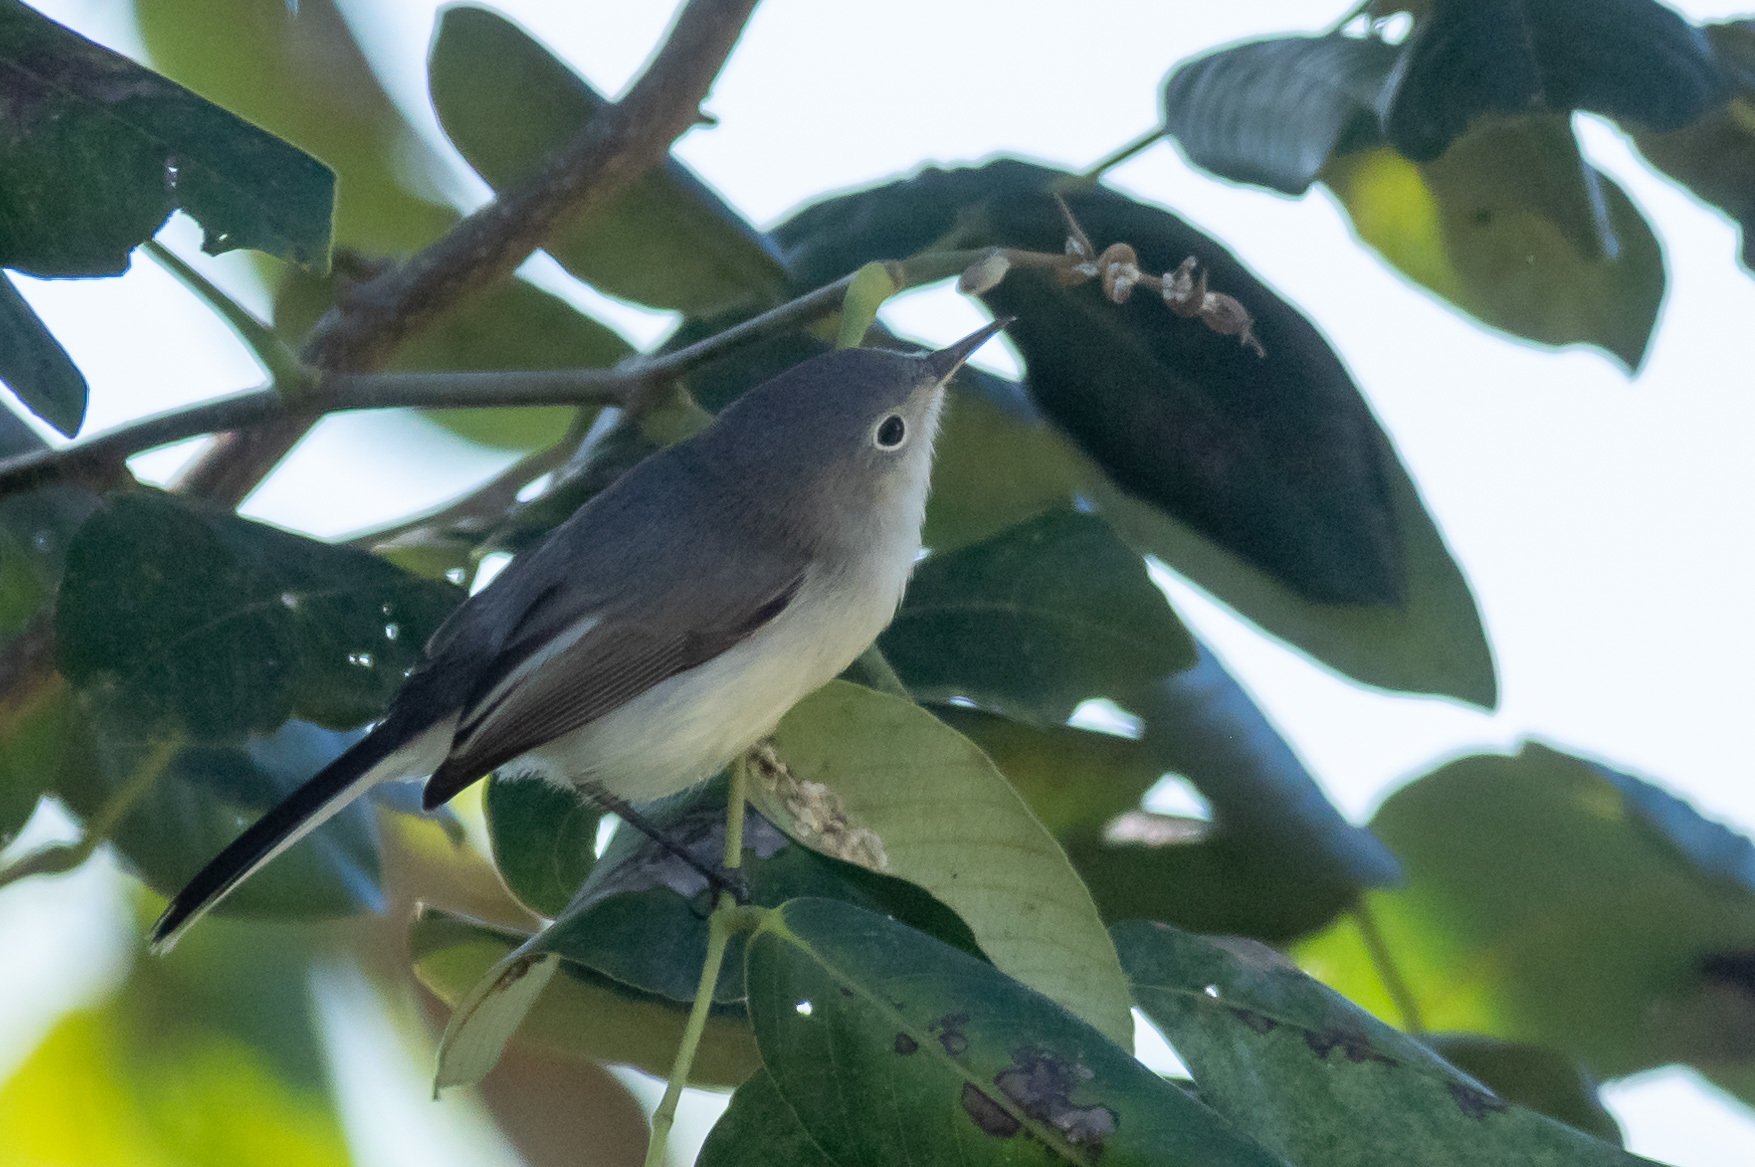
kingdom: Animalia
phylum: Chordata
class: Aves
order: Passeriformes
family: Polioptilidae
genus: Polioptila
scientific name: Polioptila caerulea
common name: Blue-gray gnatcatcher
